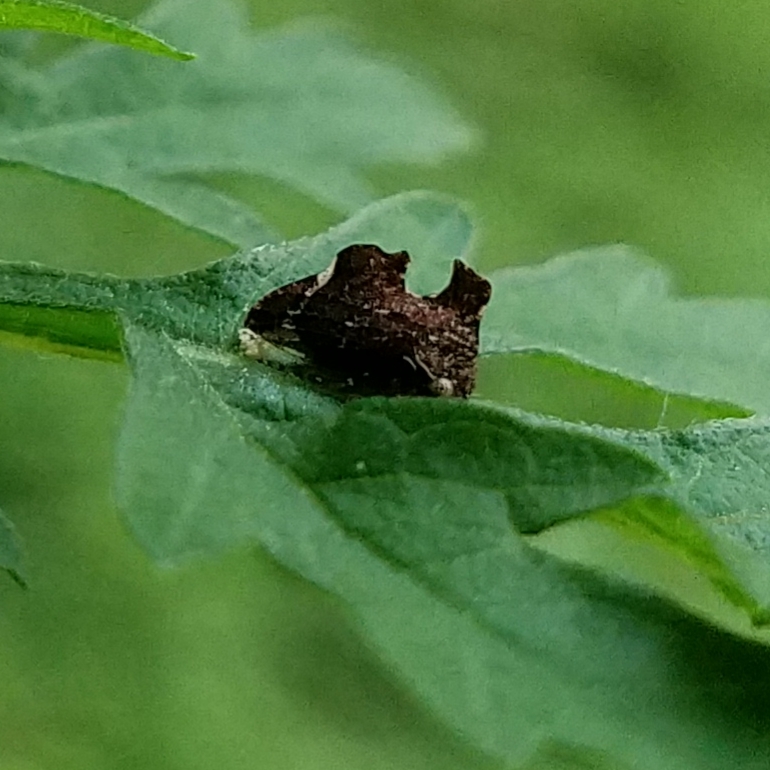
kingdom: Animalia
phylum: Arthropoda
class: Insecta
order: Hemiptera
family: Membracidae
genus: Entylia
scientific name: Entylia carinata
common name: Keeled treehopper
